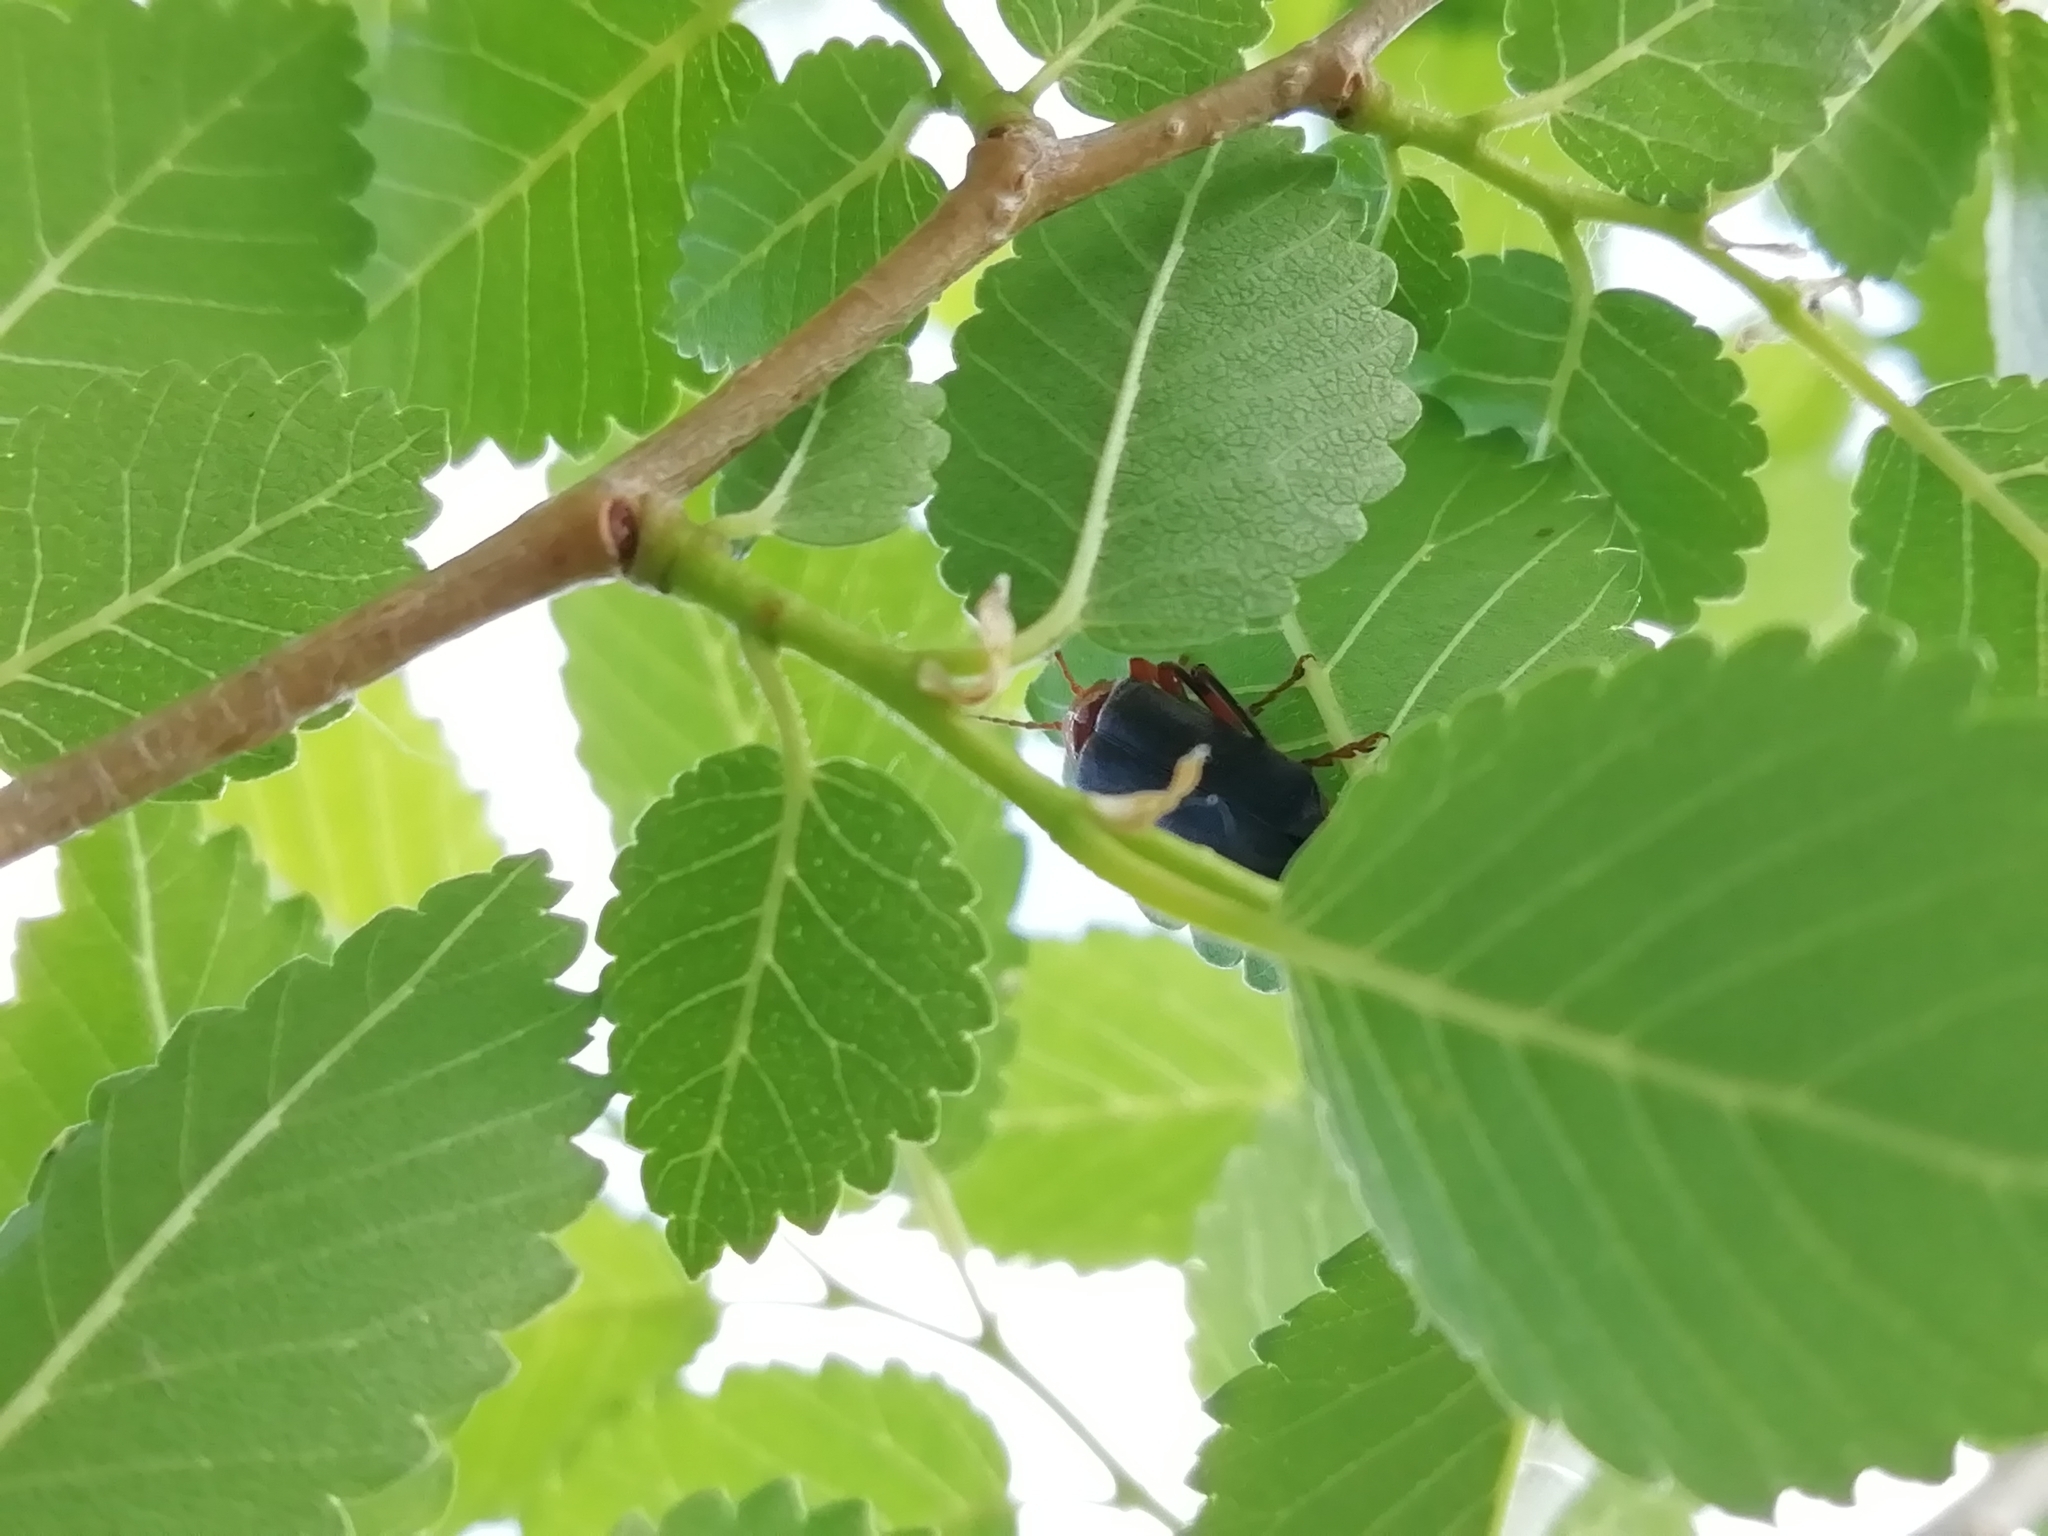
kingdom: Animalia
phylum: Arthropoda
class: Insecta
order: Coleoptera
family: Cantharidae
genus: Cantharis
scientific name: Cantharis livida
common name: Livid soldier beetle
